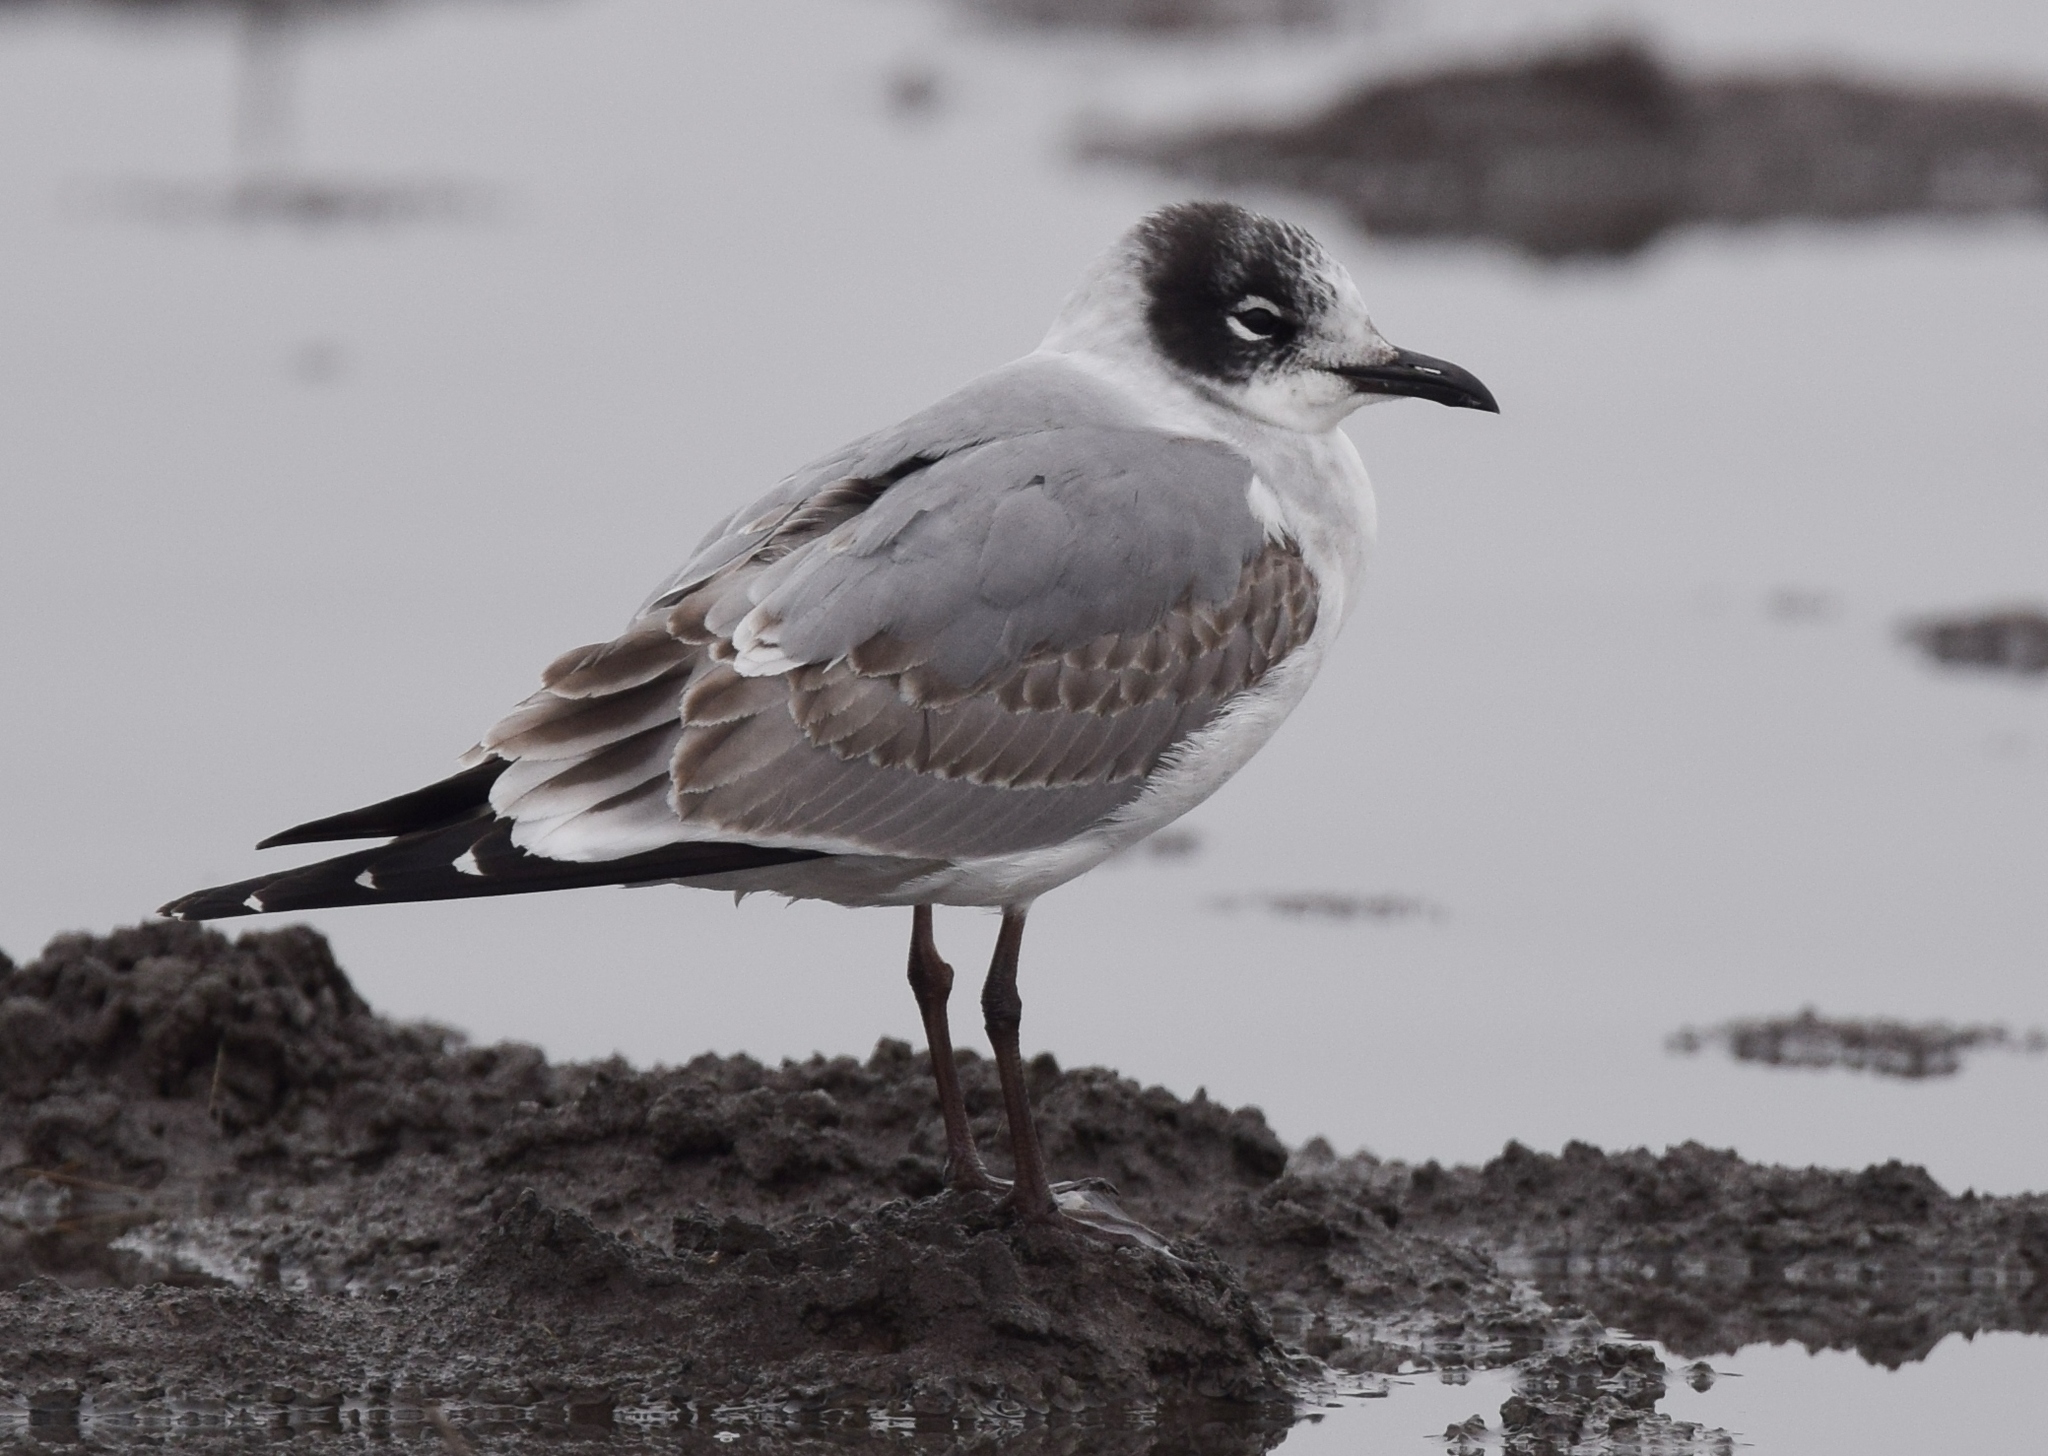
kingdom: Animalia
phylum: Chordata
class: Aves
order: Charadriiformes
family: Laridae
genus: Leucophaeus
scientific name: Leucophaeus pipixcan
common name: Franklin's gull
